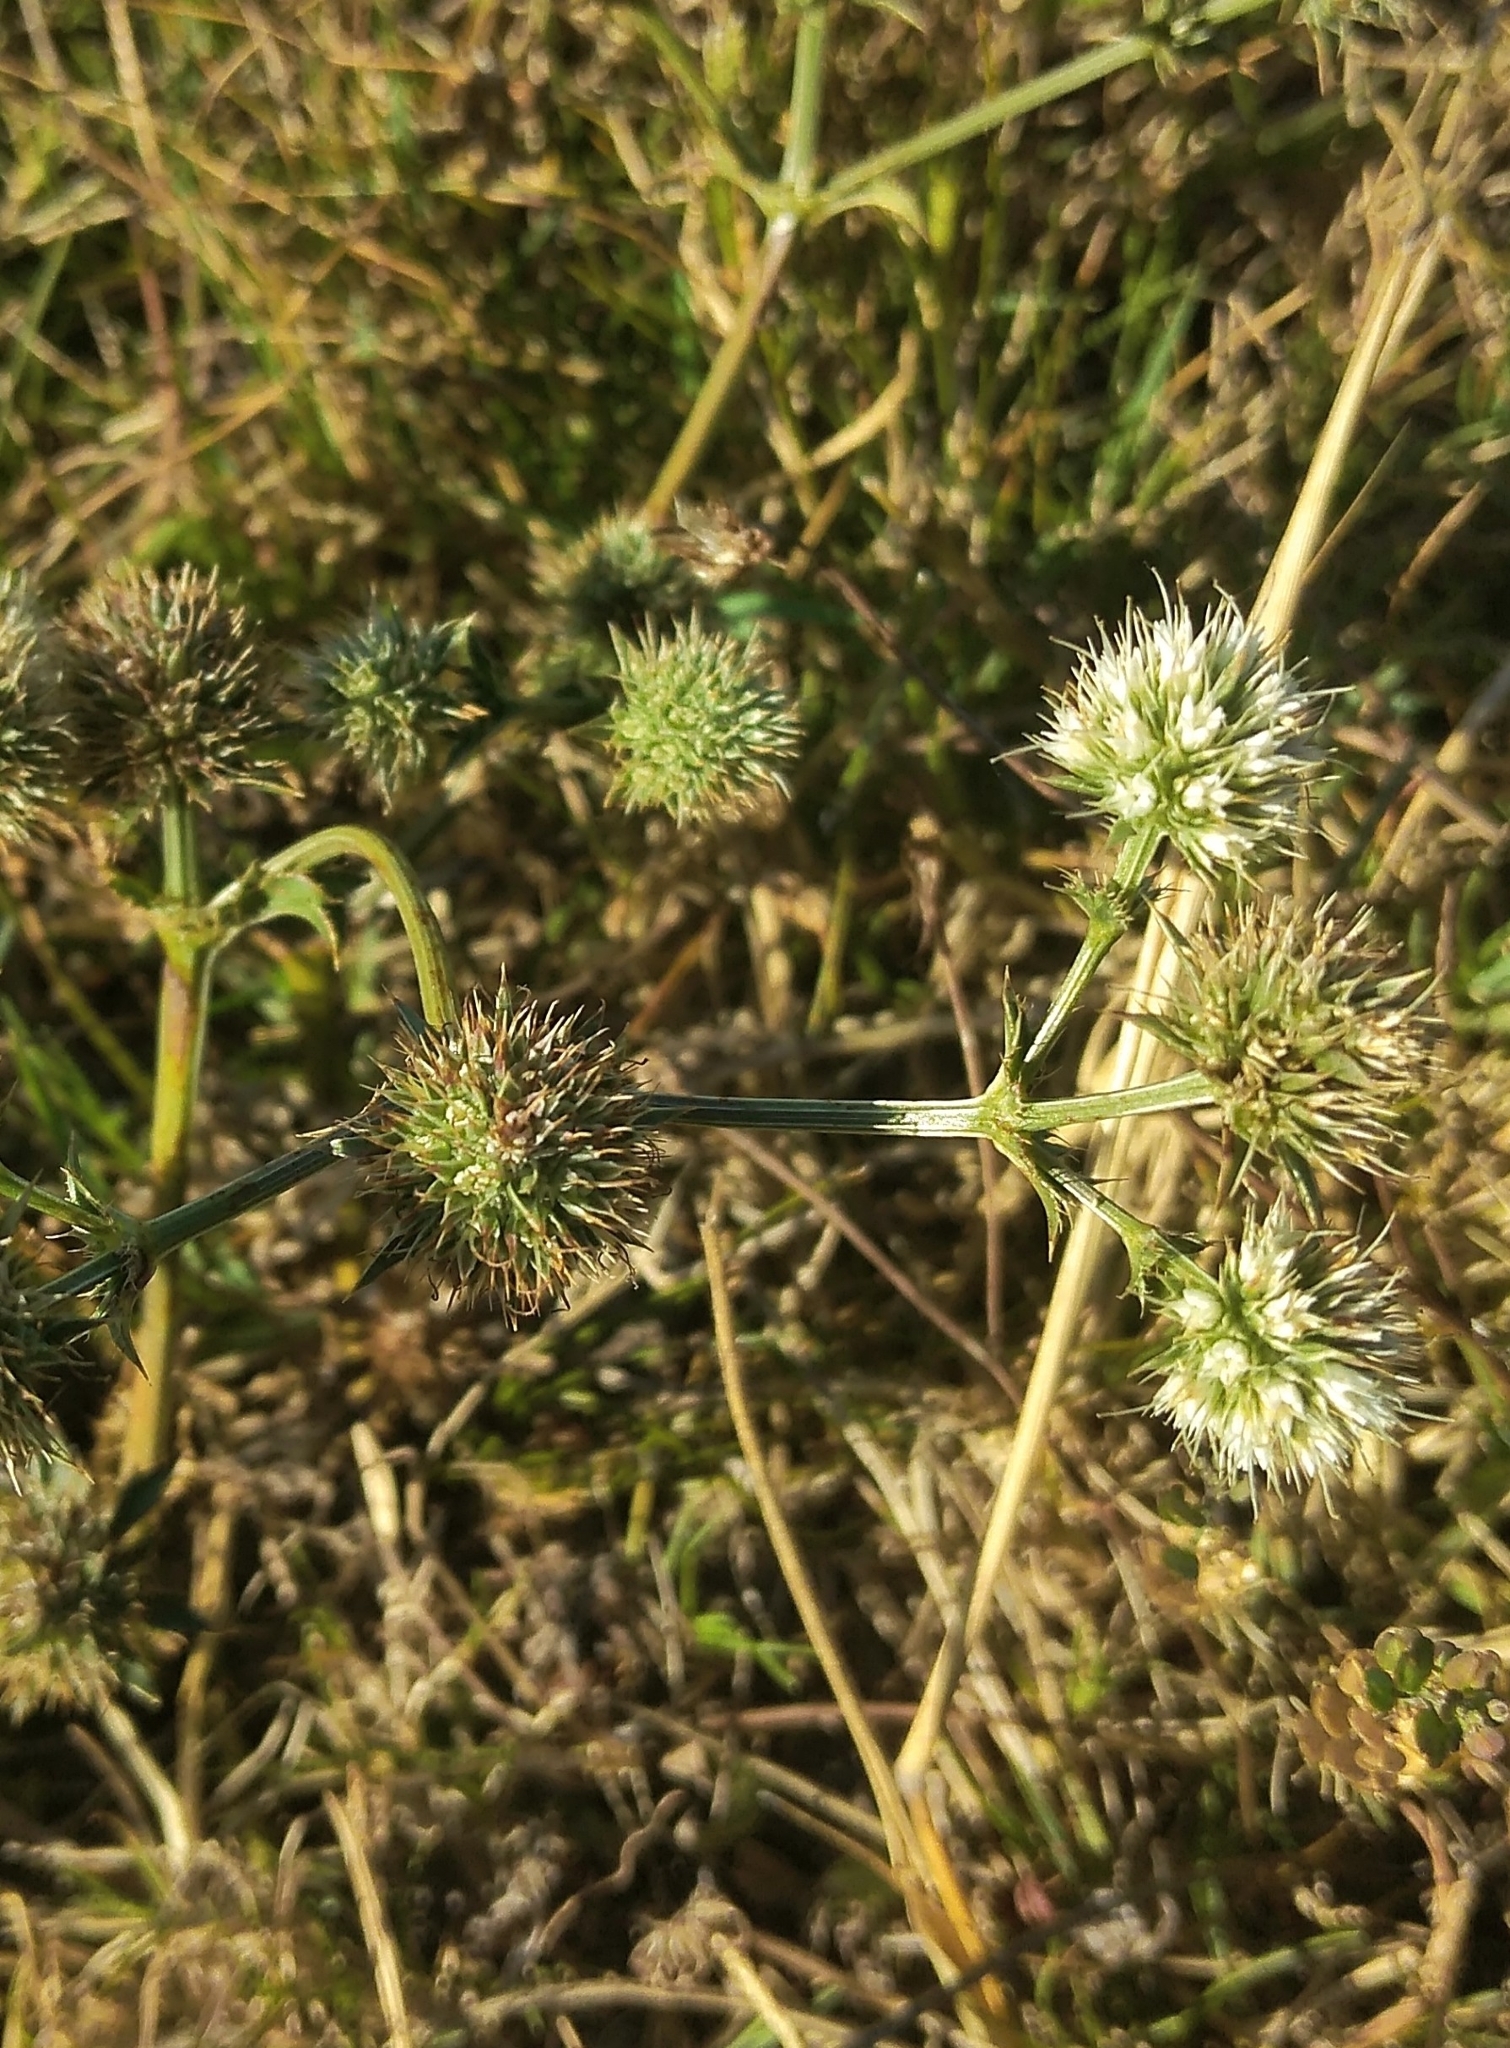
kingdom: Plantae
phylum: Tracheophyta
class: Magnoliopsida
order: Apiales
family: Apiaceae
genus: Eryngium
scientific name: Eryngium nudicaule
